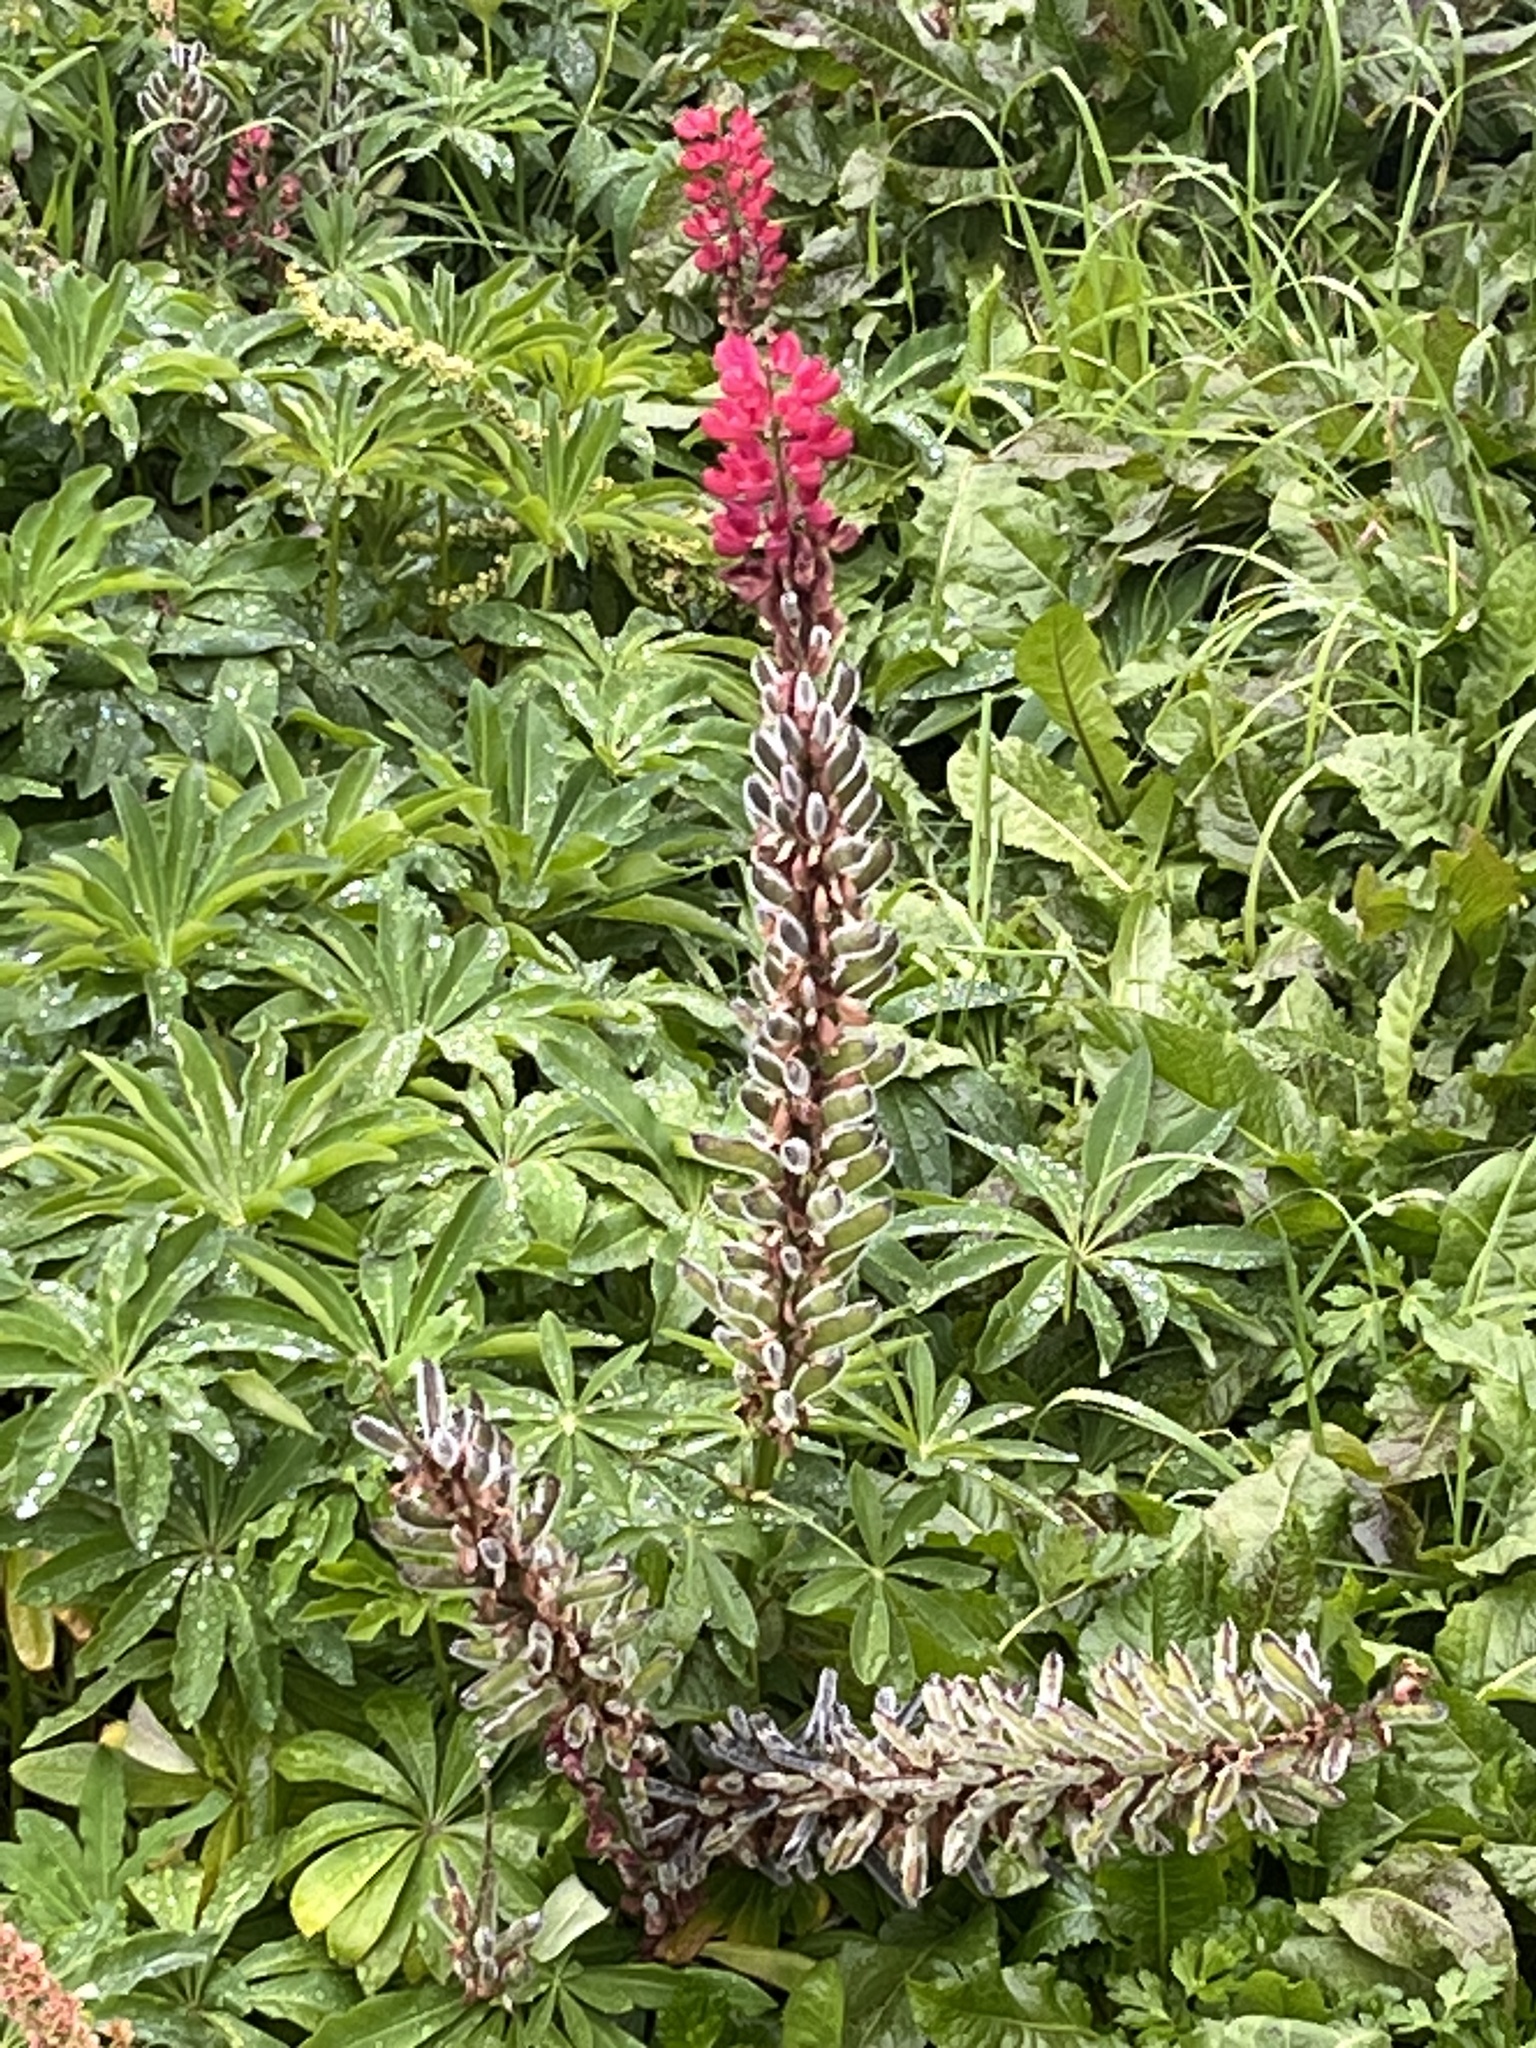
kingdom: Plantae
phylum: Tracheophyta
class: Magnoliopsida
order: Fabales
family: Fabaceae
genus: Lupinus
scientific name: Lupinus polyphyllus
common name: Garden lupin
